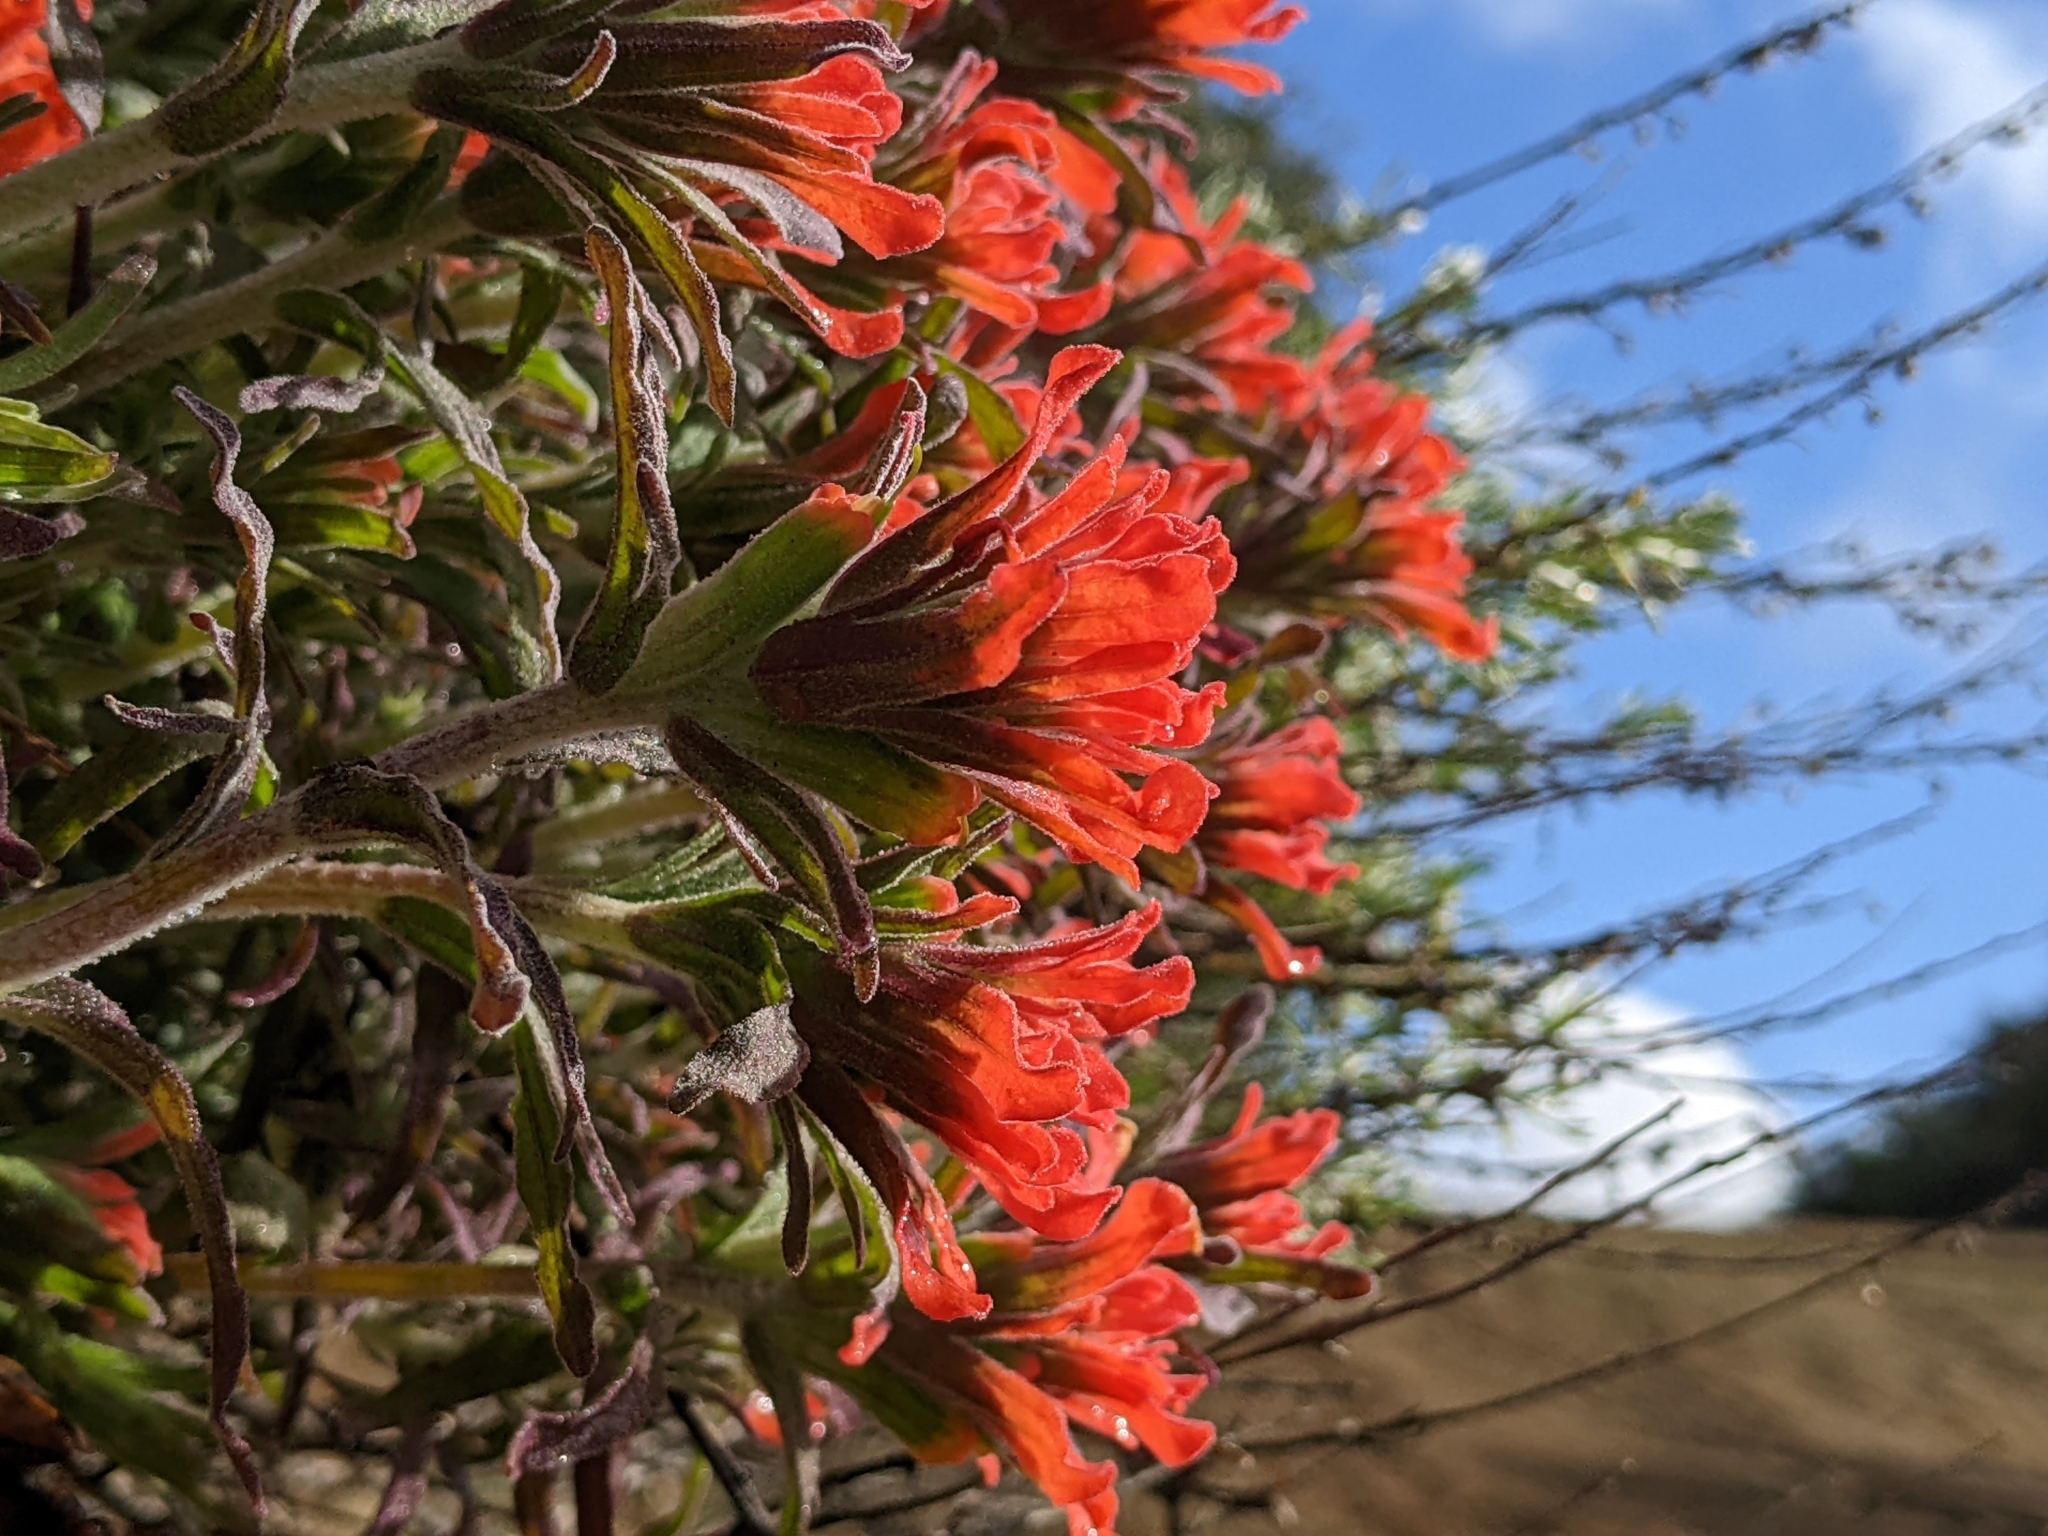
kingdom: Plantae
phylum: Tracheophyta
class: Magnoliopsida
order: Lamiales
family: Orobanchaceae
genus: Castilleja
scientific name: Castilleja foliolosa
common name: Woolly indian paintbrush
